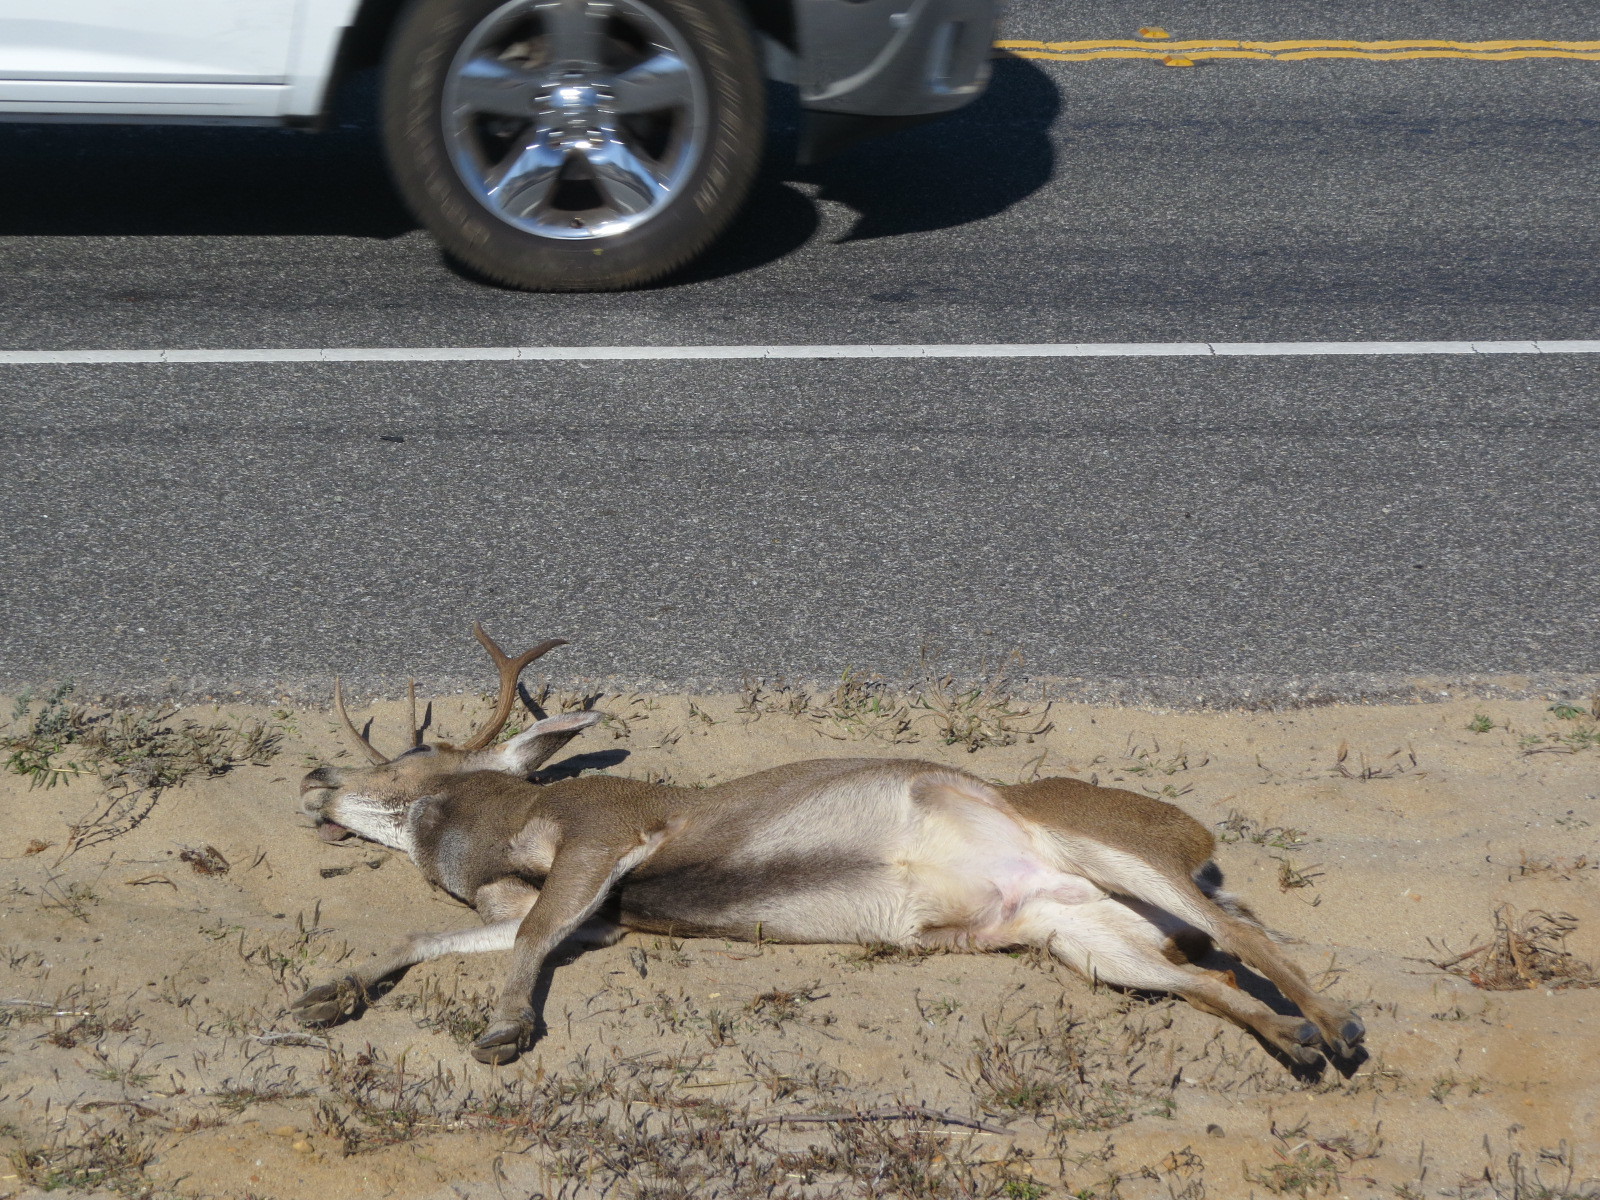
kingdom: Animalia
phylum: Chordata
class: Mammalia
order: Artiodactyla
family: Cervidae
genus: Odocoileus
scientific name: Odocoileus hemionus
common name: Mule deer
